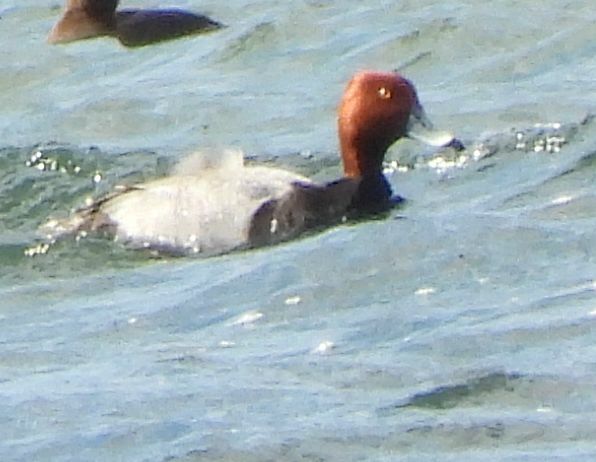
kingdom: Animalia
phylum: Chordata
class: Aves
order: Anseriformes
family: Anatidae
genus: Aythya
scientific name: Aythya americana
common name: Redhead
